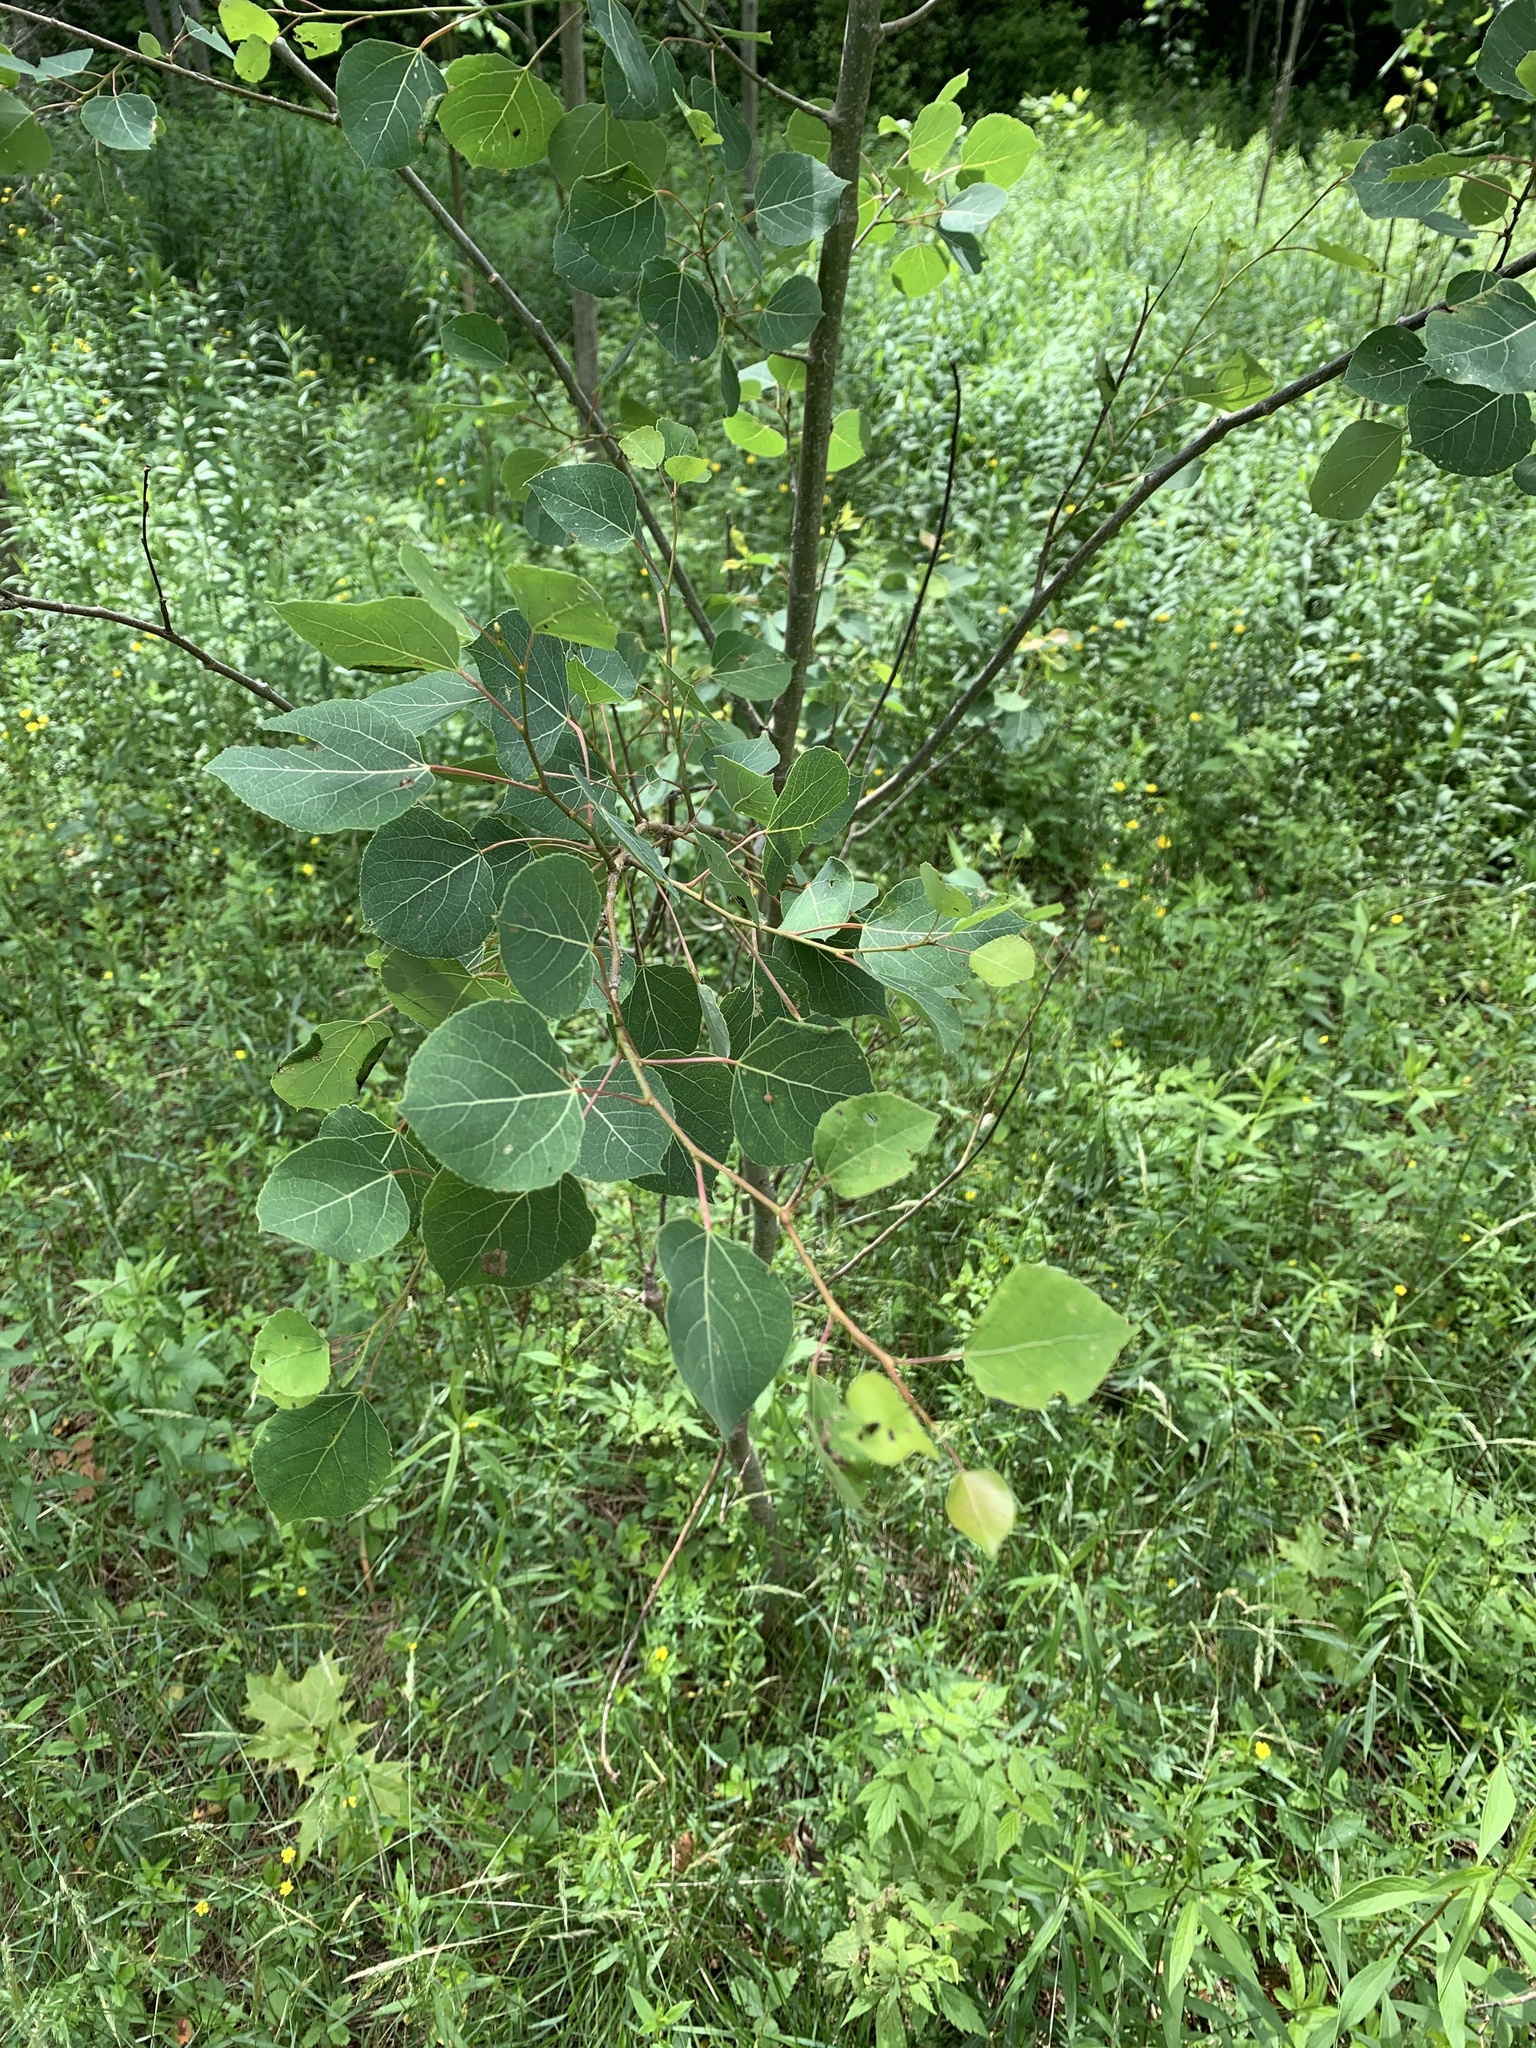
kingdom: Plantae
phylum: Tracheophyta
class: Magnoliopsida
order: Malpighiales
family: Salicaceae
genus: Populus
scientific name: Populus tremuloides
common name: Quaking aspen
